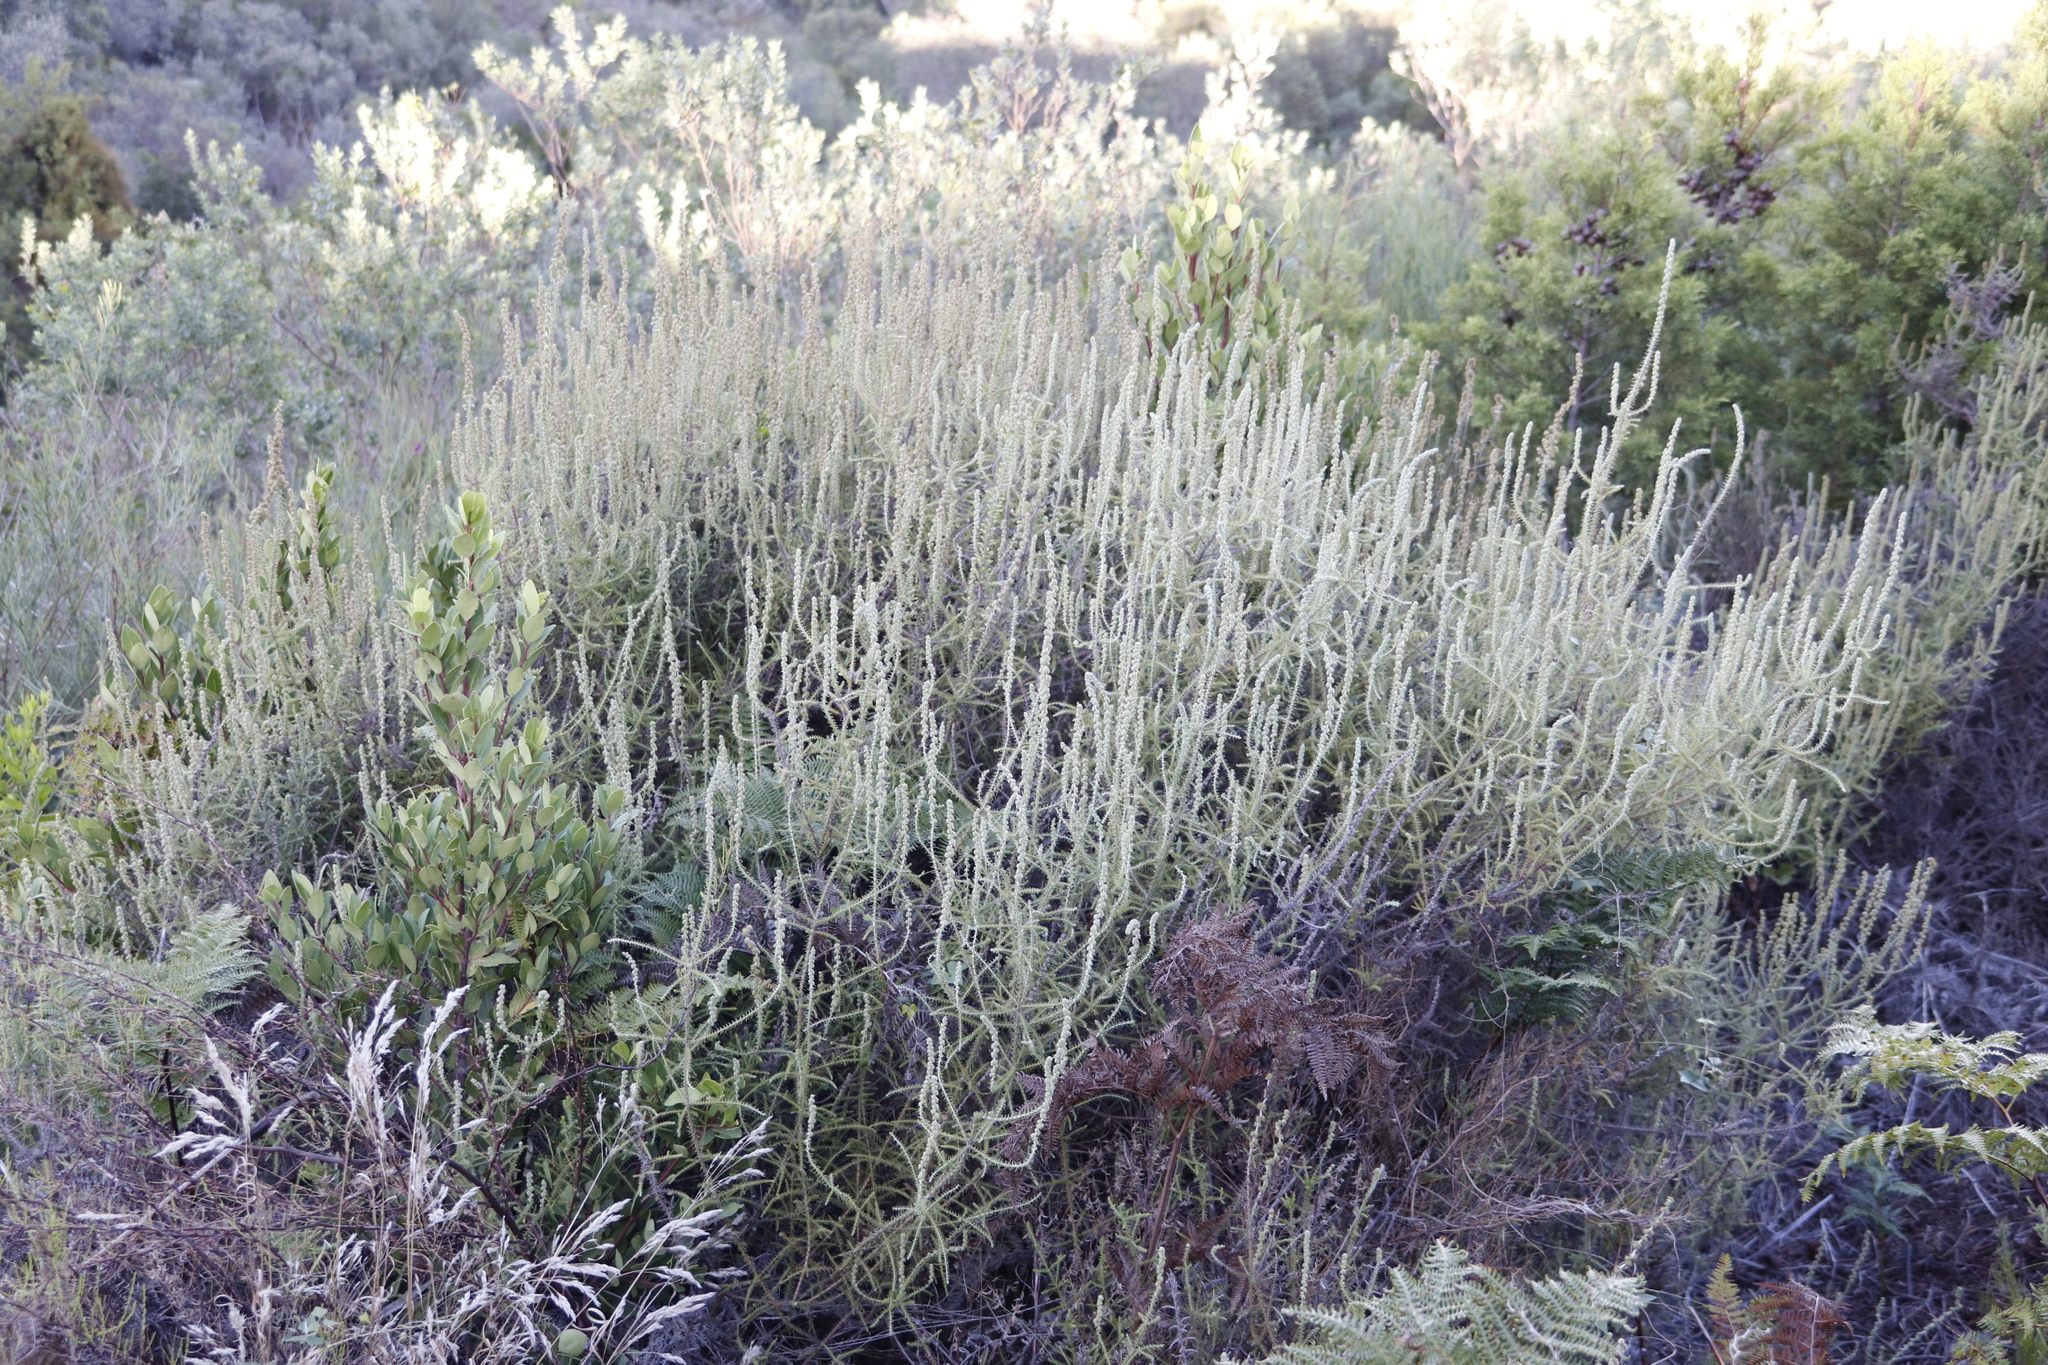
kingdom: Plantae
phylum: Tracheophyta
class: Magnoliopsida
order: Asterales
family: Asteraceae
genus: Seriphium
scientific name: Seriphium cinereum
